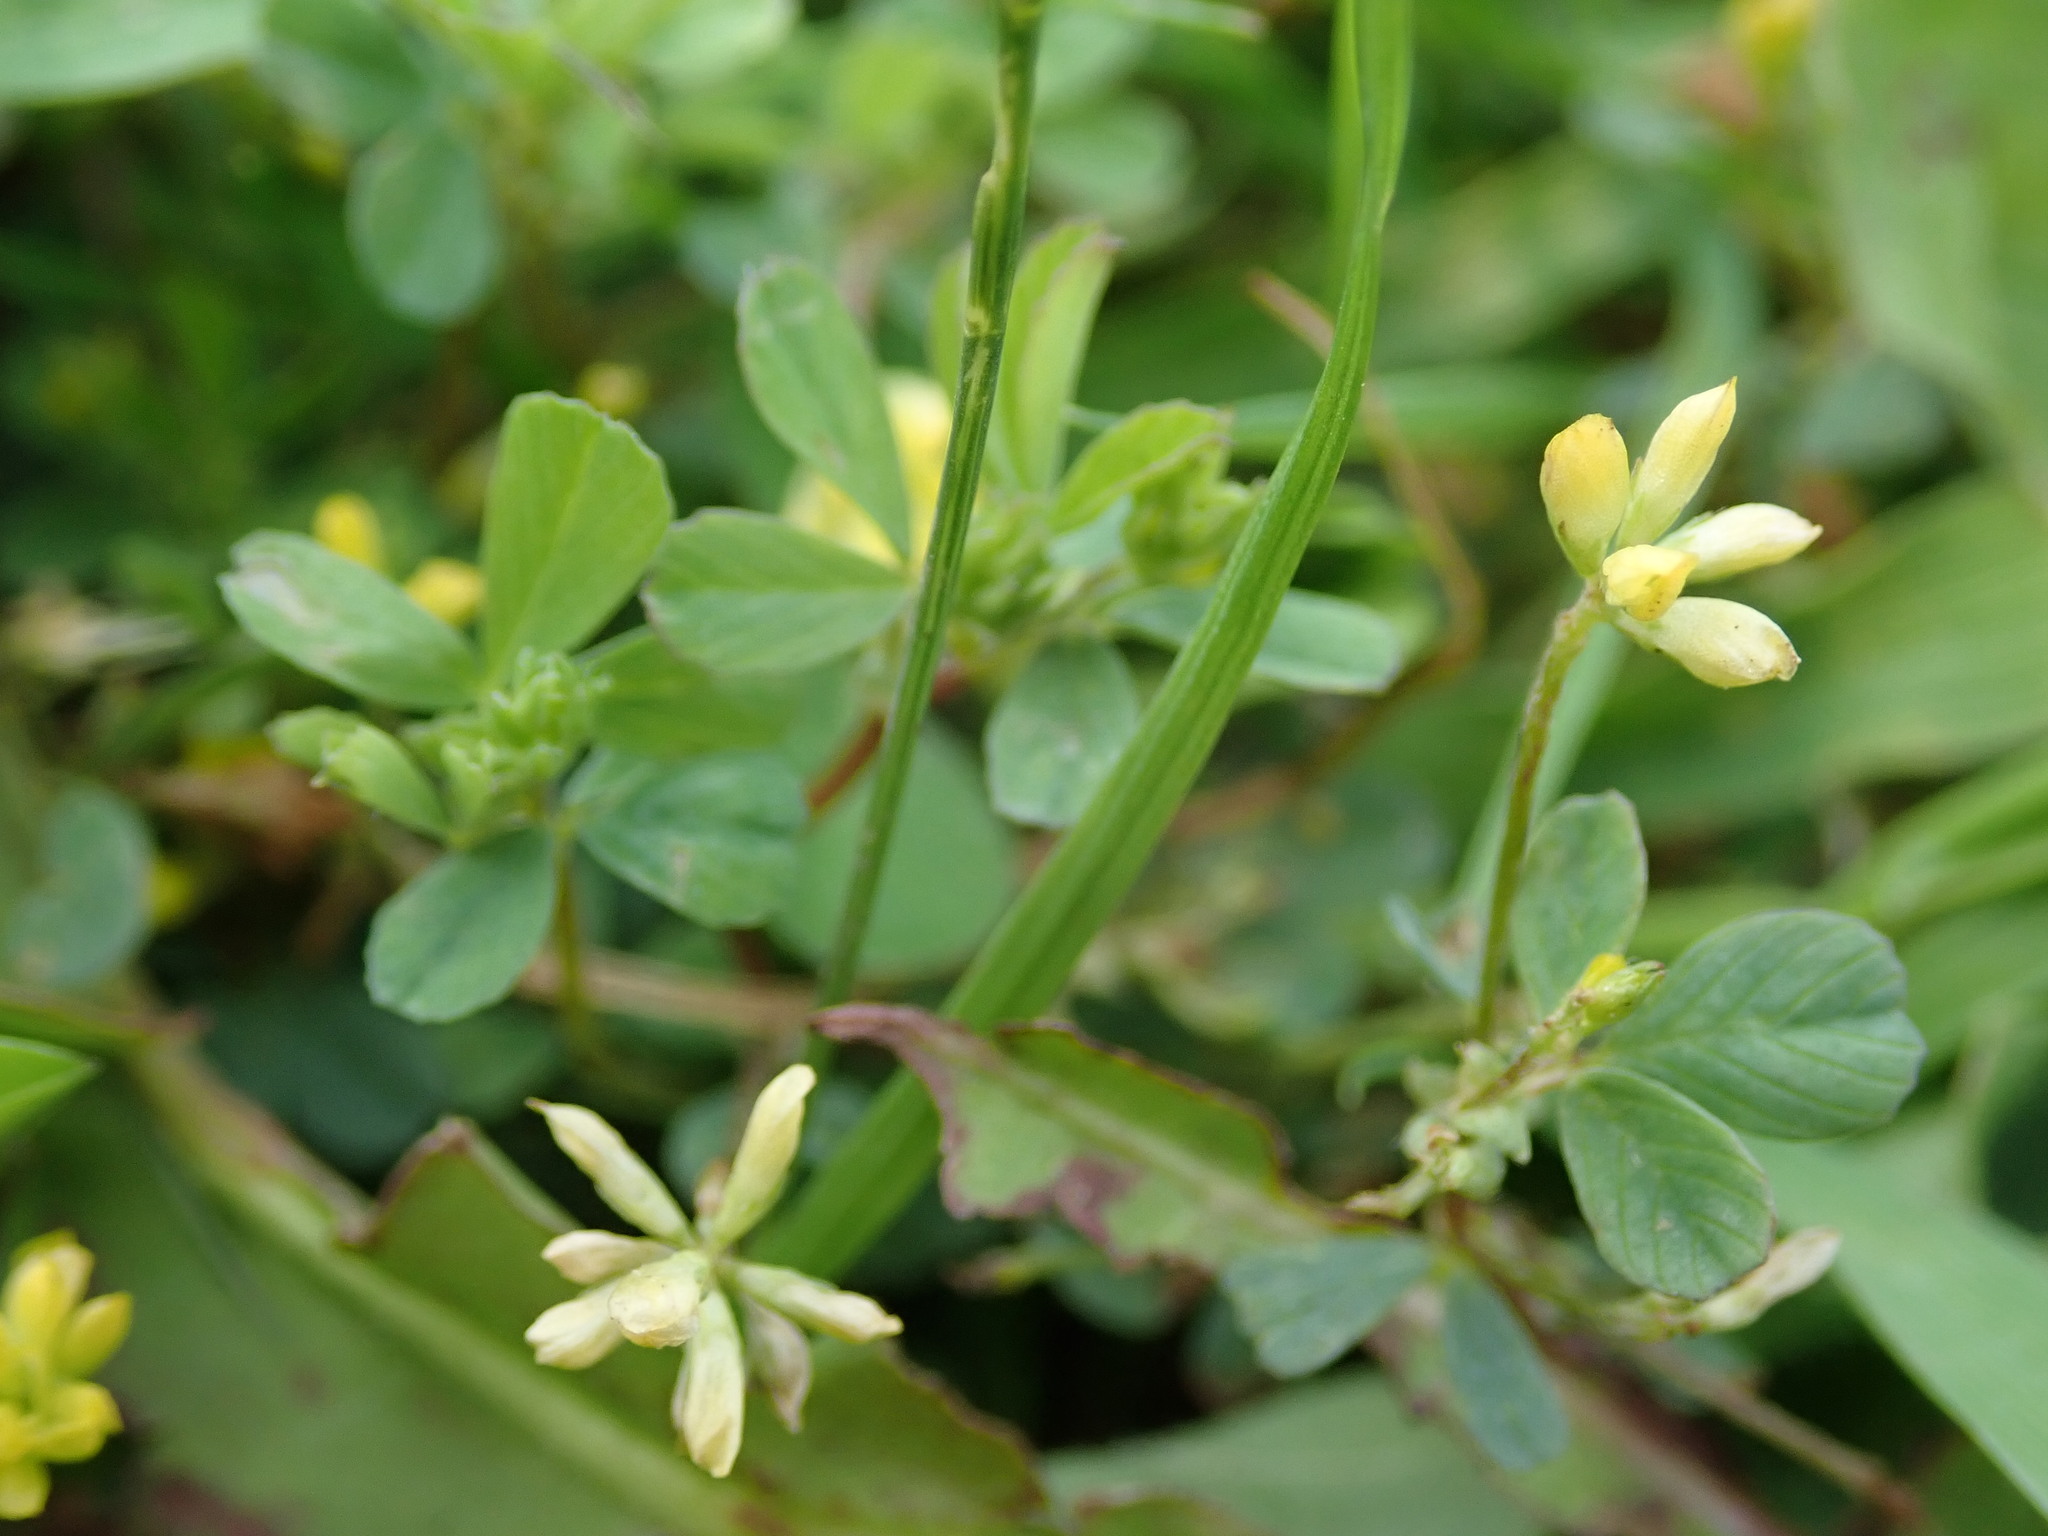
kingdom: Plantae
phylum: Tracheophyta
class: Magnoliopsida
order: Fabales
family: Fabaceae
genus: Trifolium
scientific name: Trifolium dubium
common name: Suckling clover
